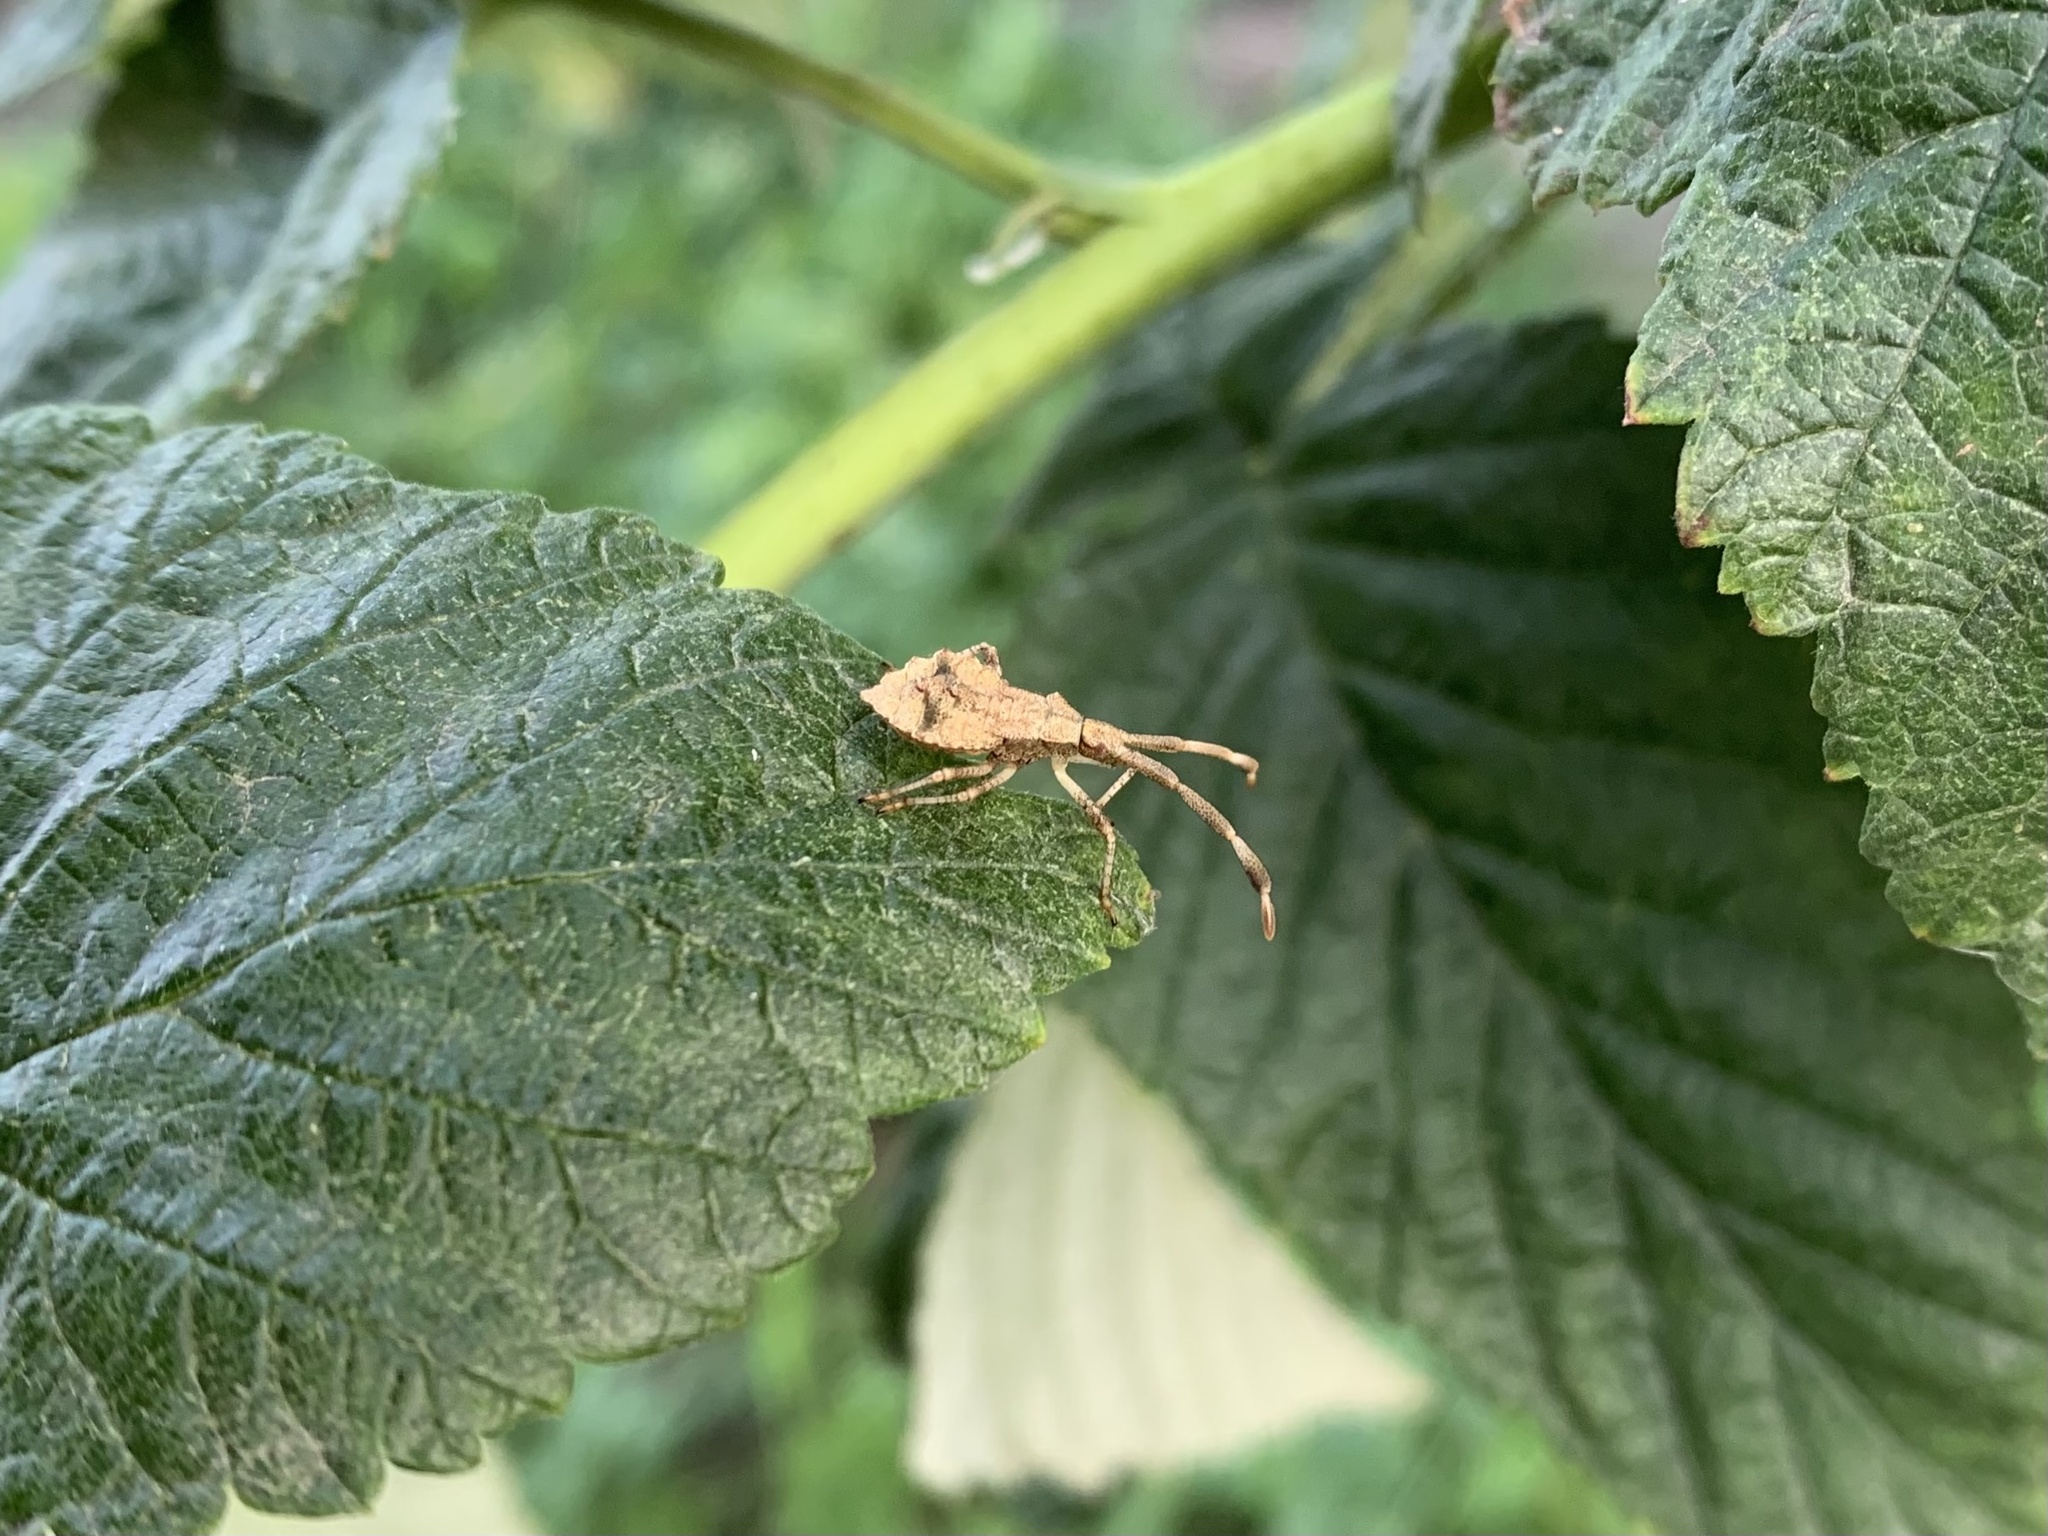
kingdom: Animalia
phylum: Arthropoda
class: Insecta
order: Hemiptera
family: Coreidae
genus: Coreus
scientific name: Coreus marginatus
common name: Dock bug
